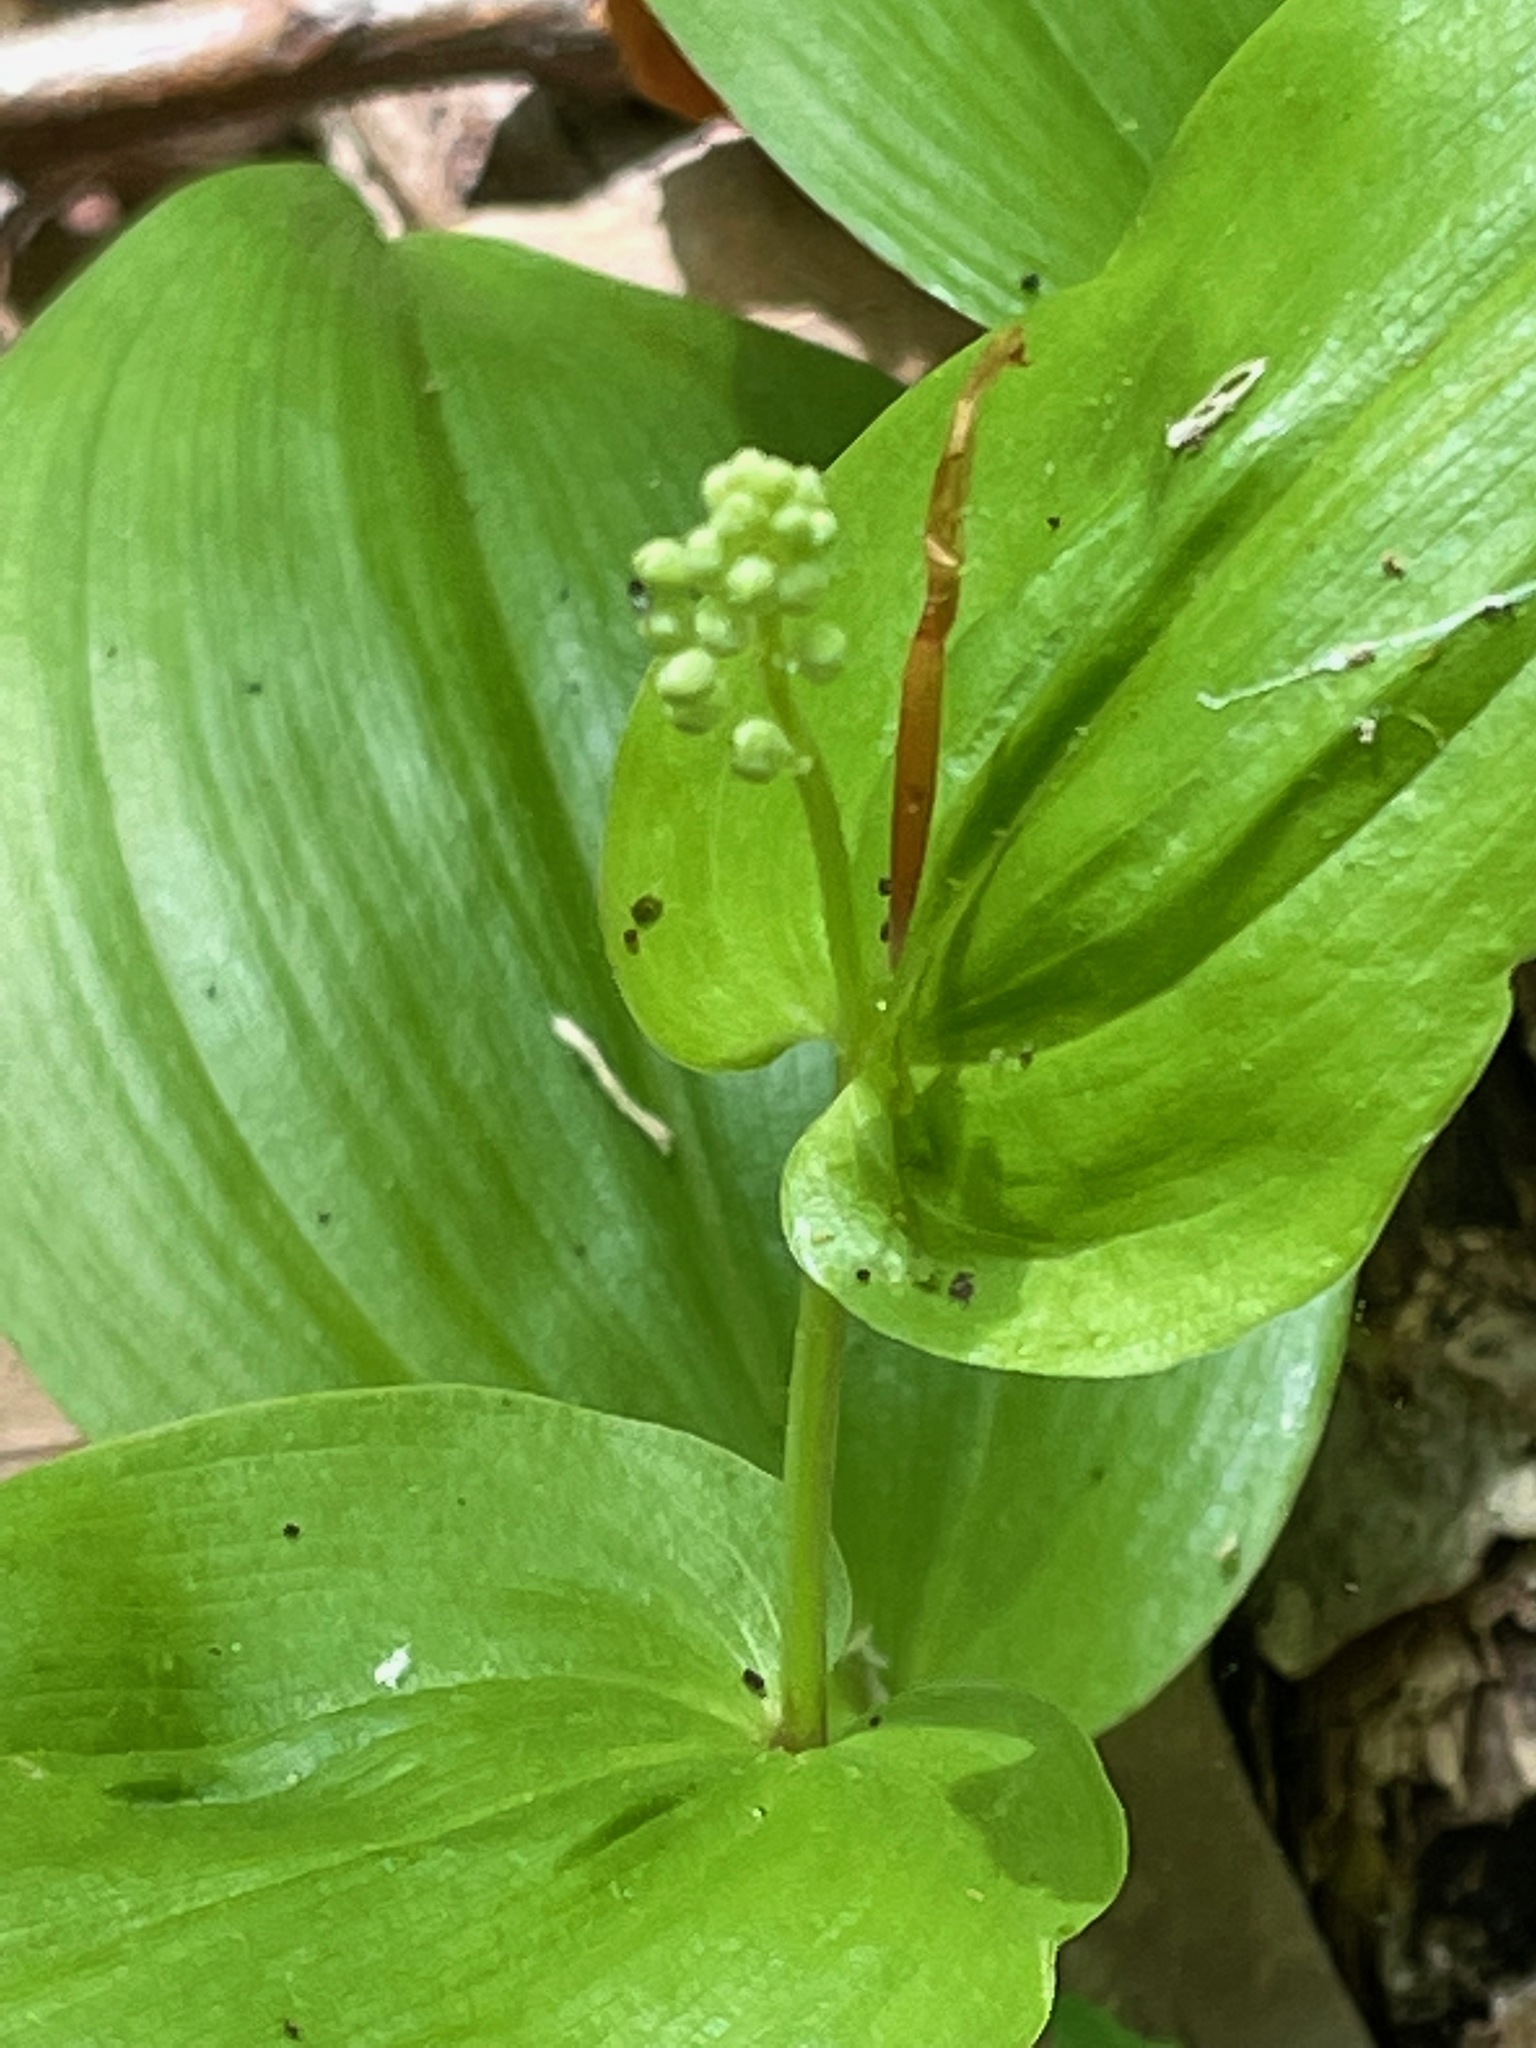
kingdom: Plantae
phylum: Tracheophyta
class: Liliopsida
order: Asparagales
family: Asparagaceae
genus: Maianthemum
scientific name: Maianthemum canadense
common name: False lily-of-the-valley
